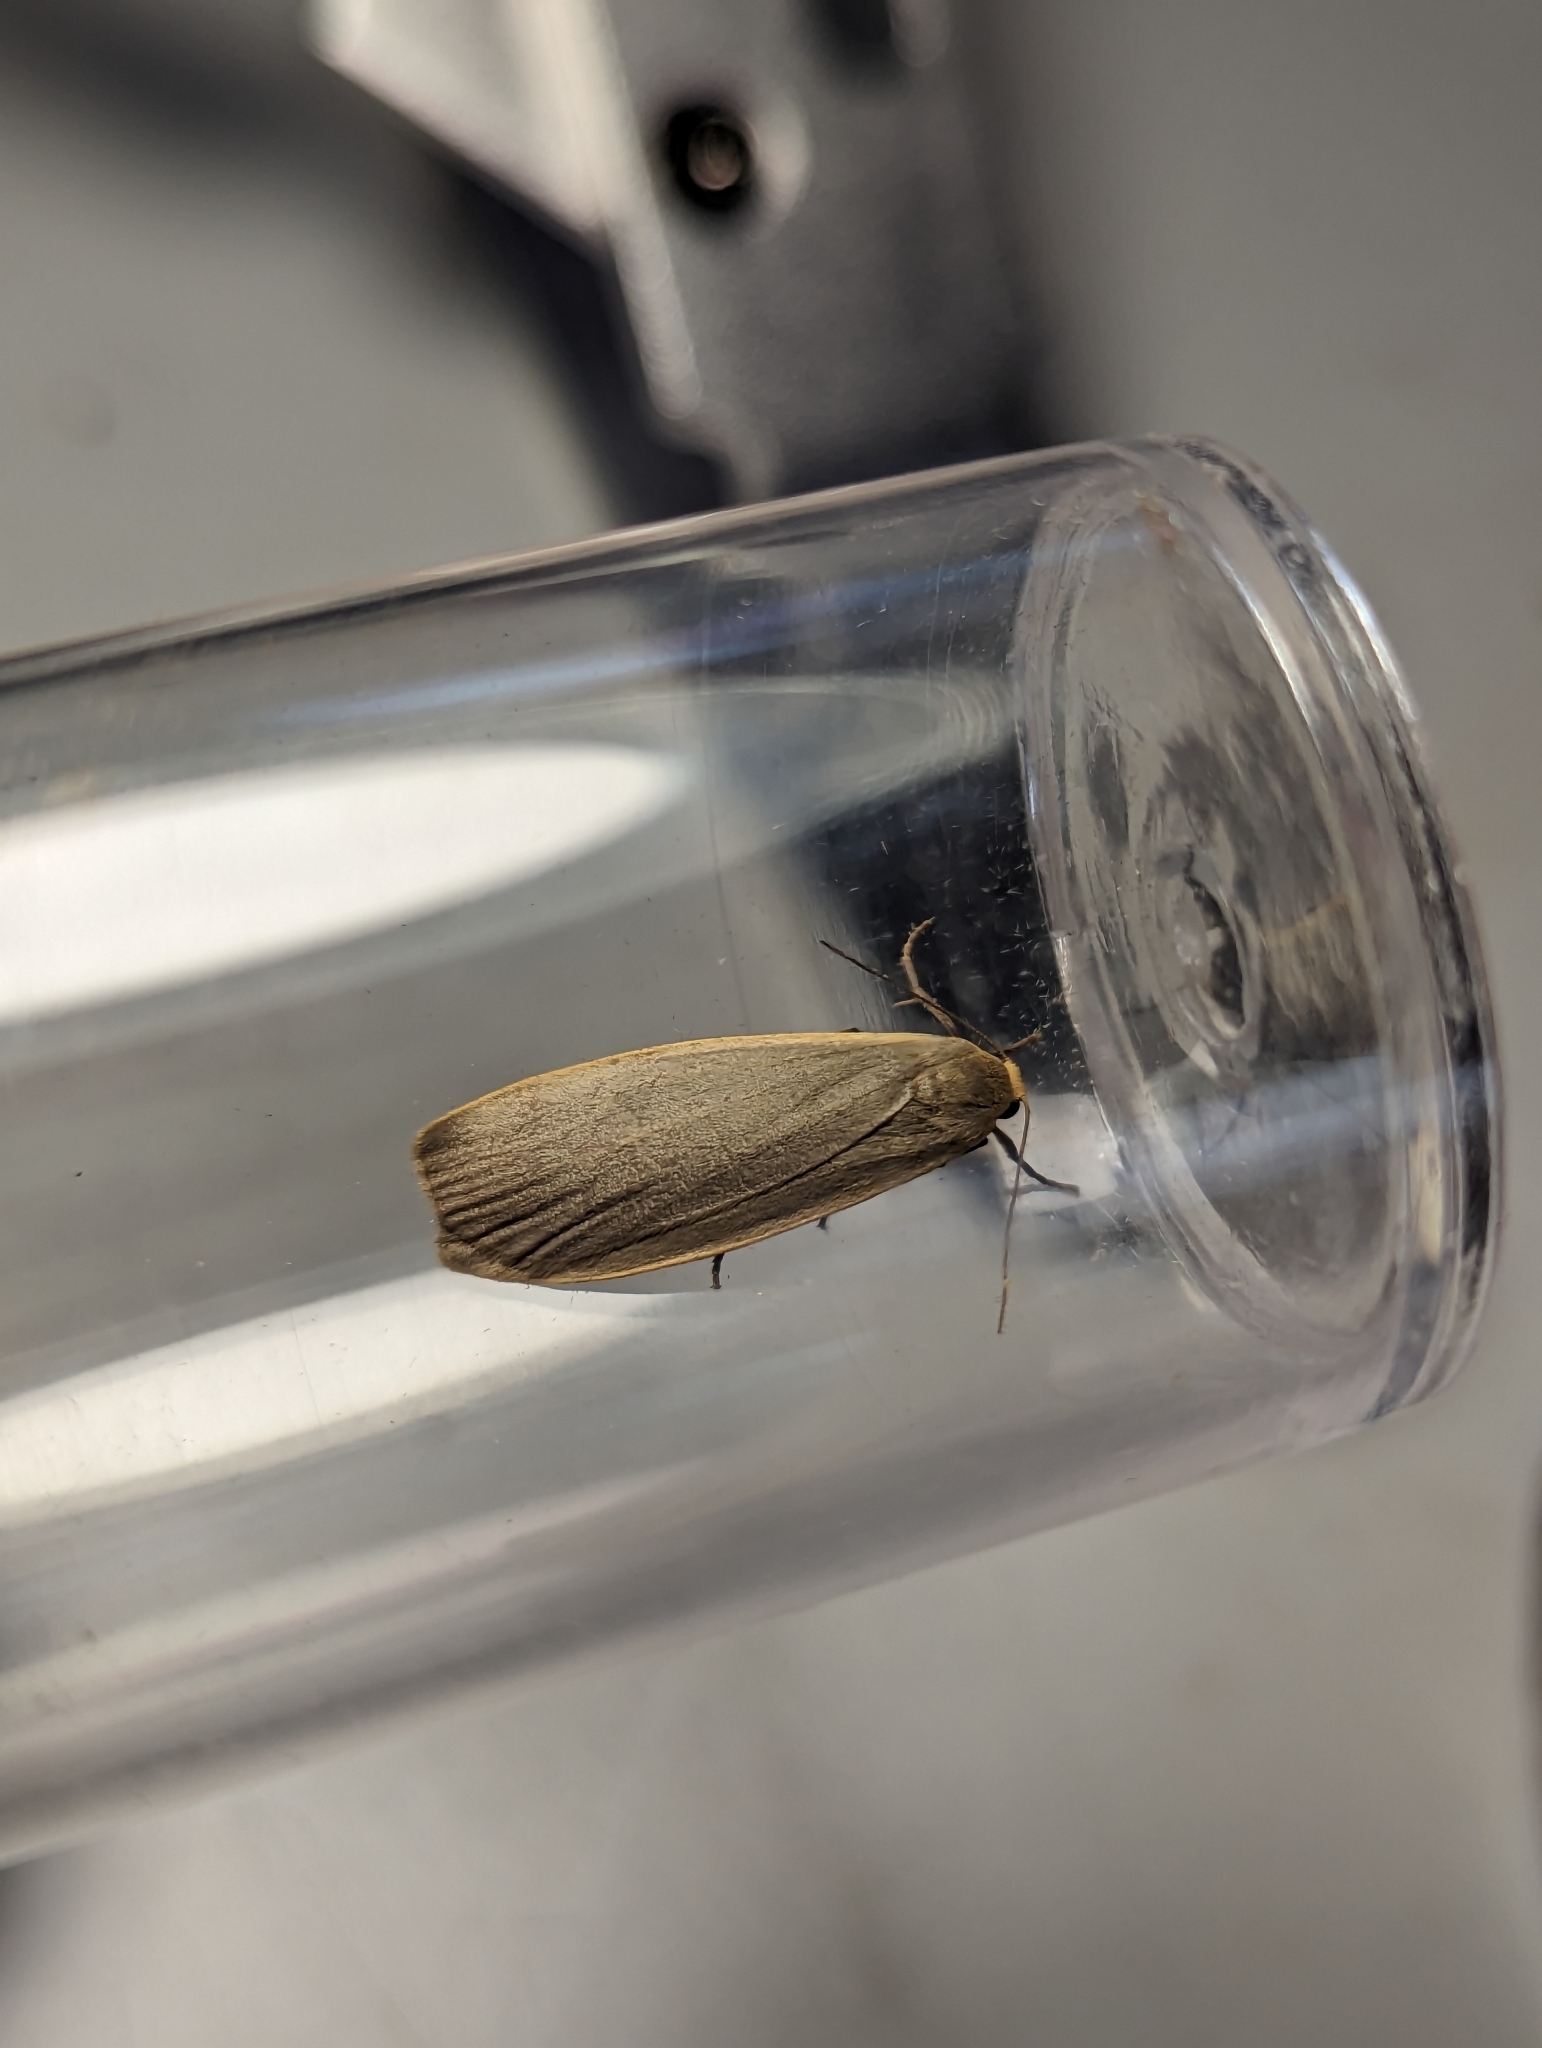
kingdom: Animalia
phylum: Arthropoda
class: Insecta
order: Lepidoptera
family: Erebidae
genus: Collita
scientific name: Collita griseola
